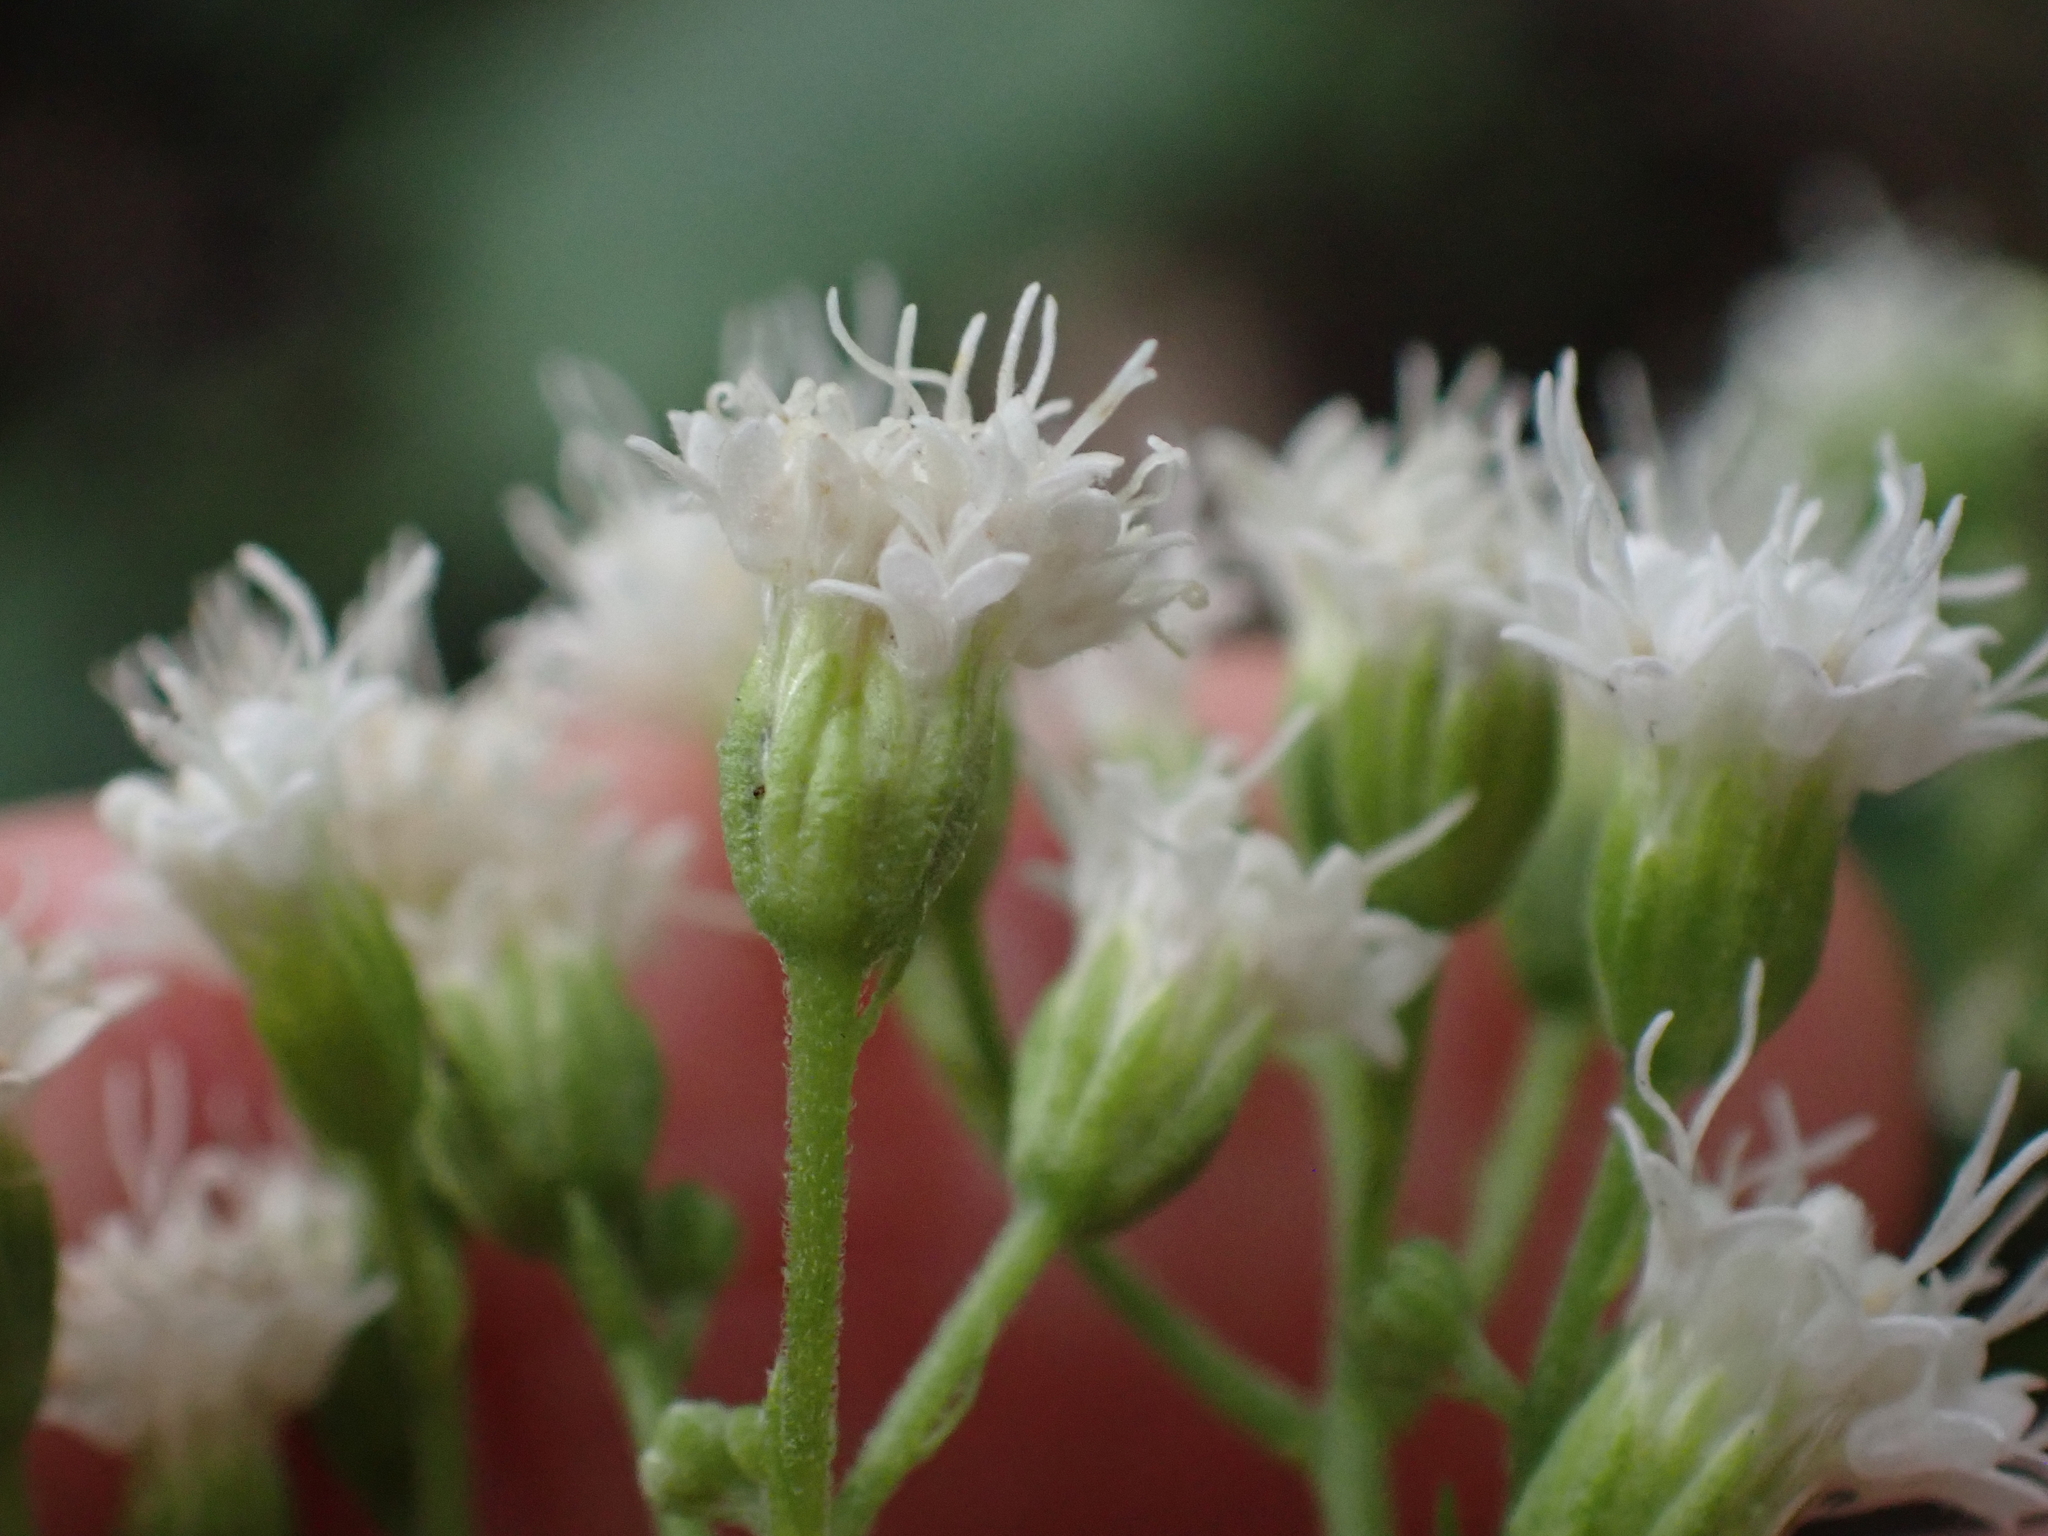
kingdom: Plantae
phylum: Tracheophyta
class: Magnoliopsida
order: Asterales
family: Asteraceae
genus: Ageratina
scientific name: Ageratina altissima
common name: White snakeroot
